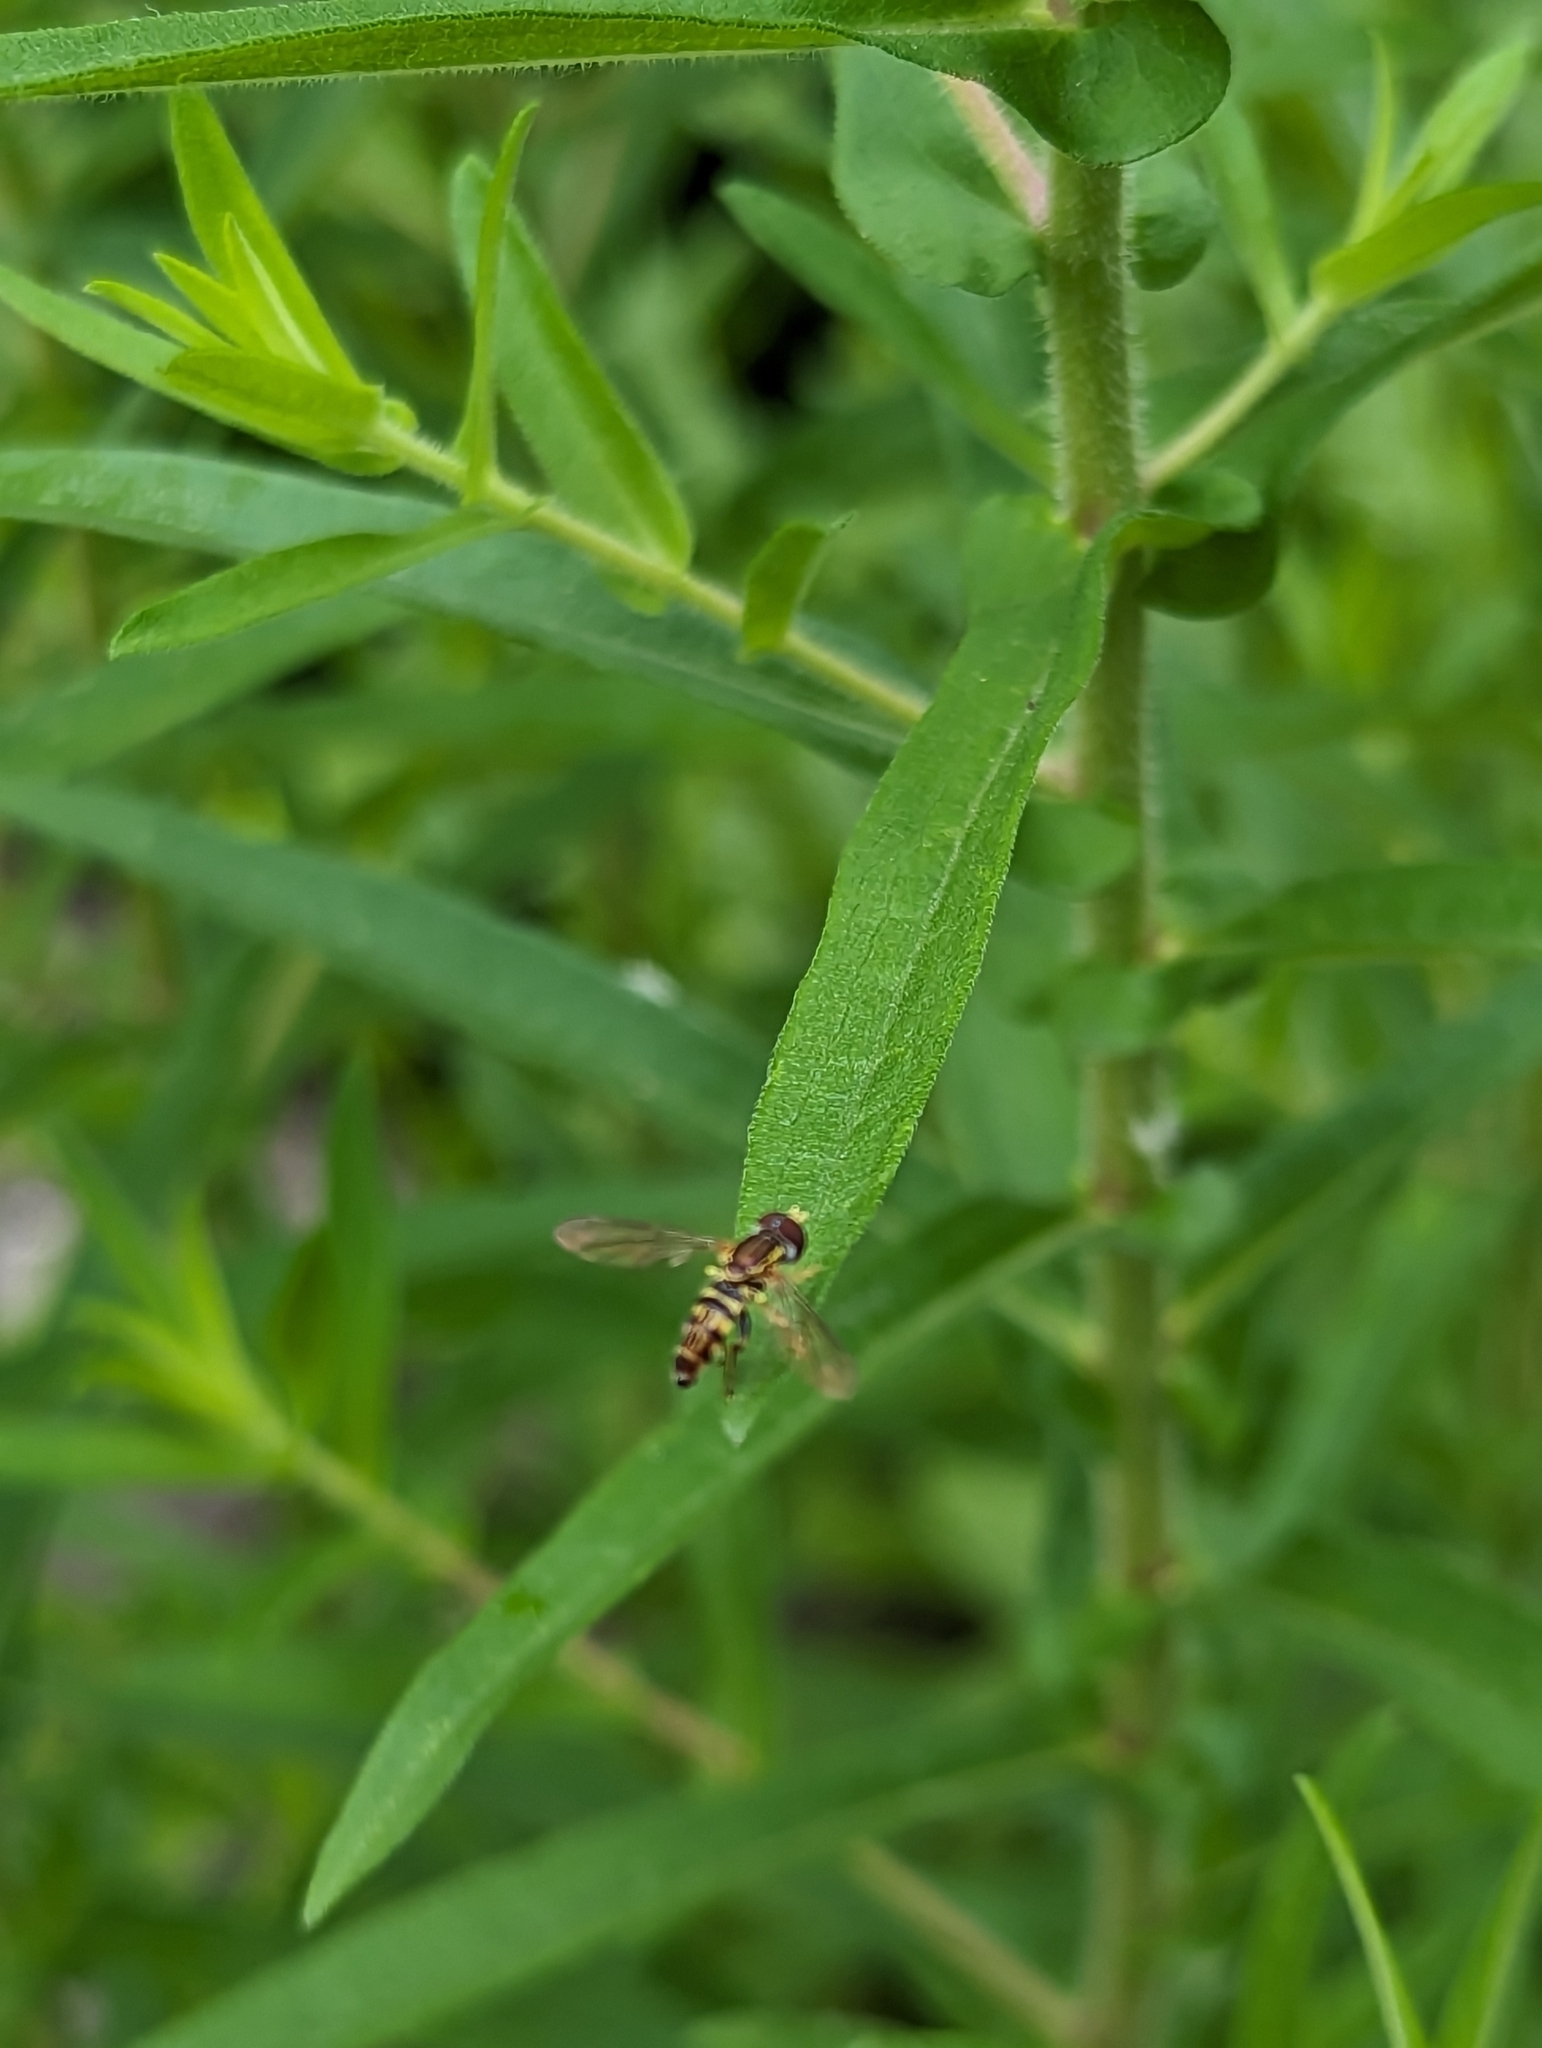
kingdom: Animalia
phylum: Arthropoda
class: Insecta
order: Diptera
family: Syrphidae
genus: Toxomerus
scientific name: Toxomerus geminatus
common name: Eastern calligrapher
